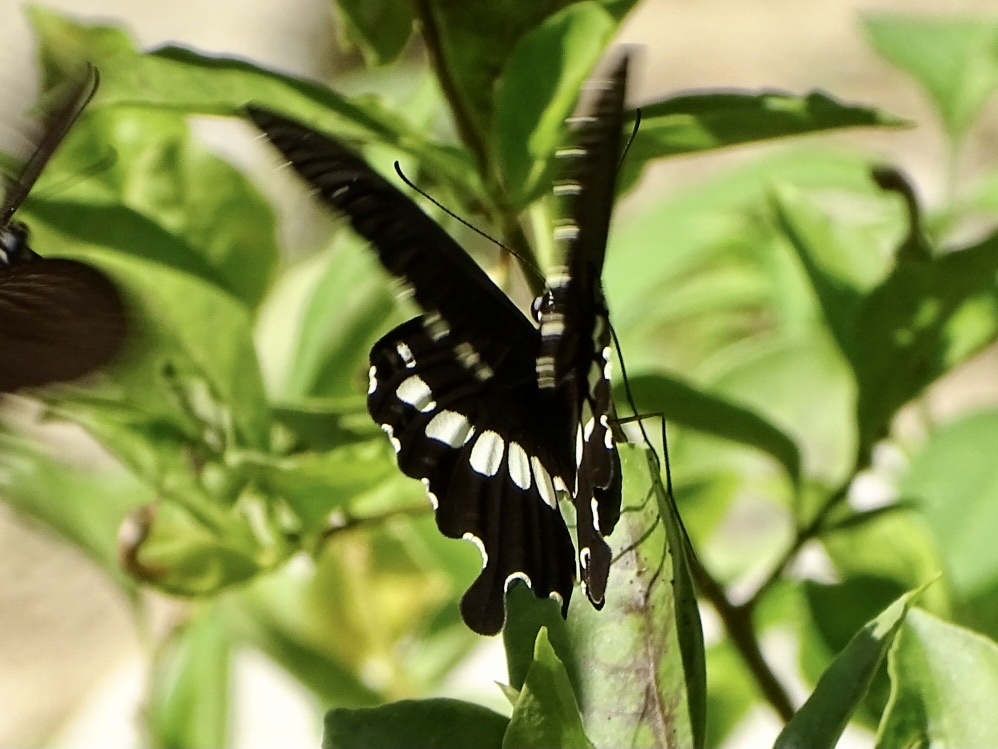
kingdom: Animalia
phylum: Arthropoda
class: Insecta
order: Lepidoptera
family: Papilionidae
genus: Papilio
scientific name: Papilio polytes
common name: Common mormon
